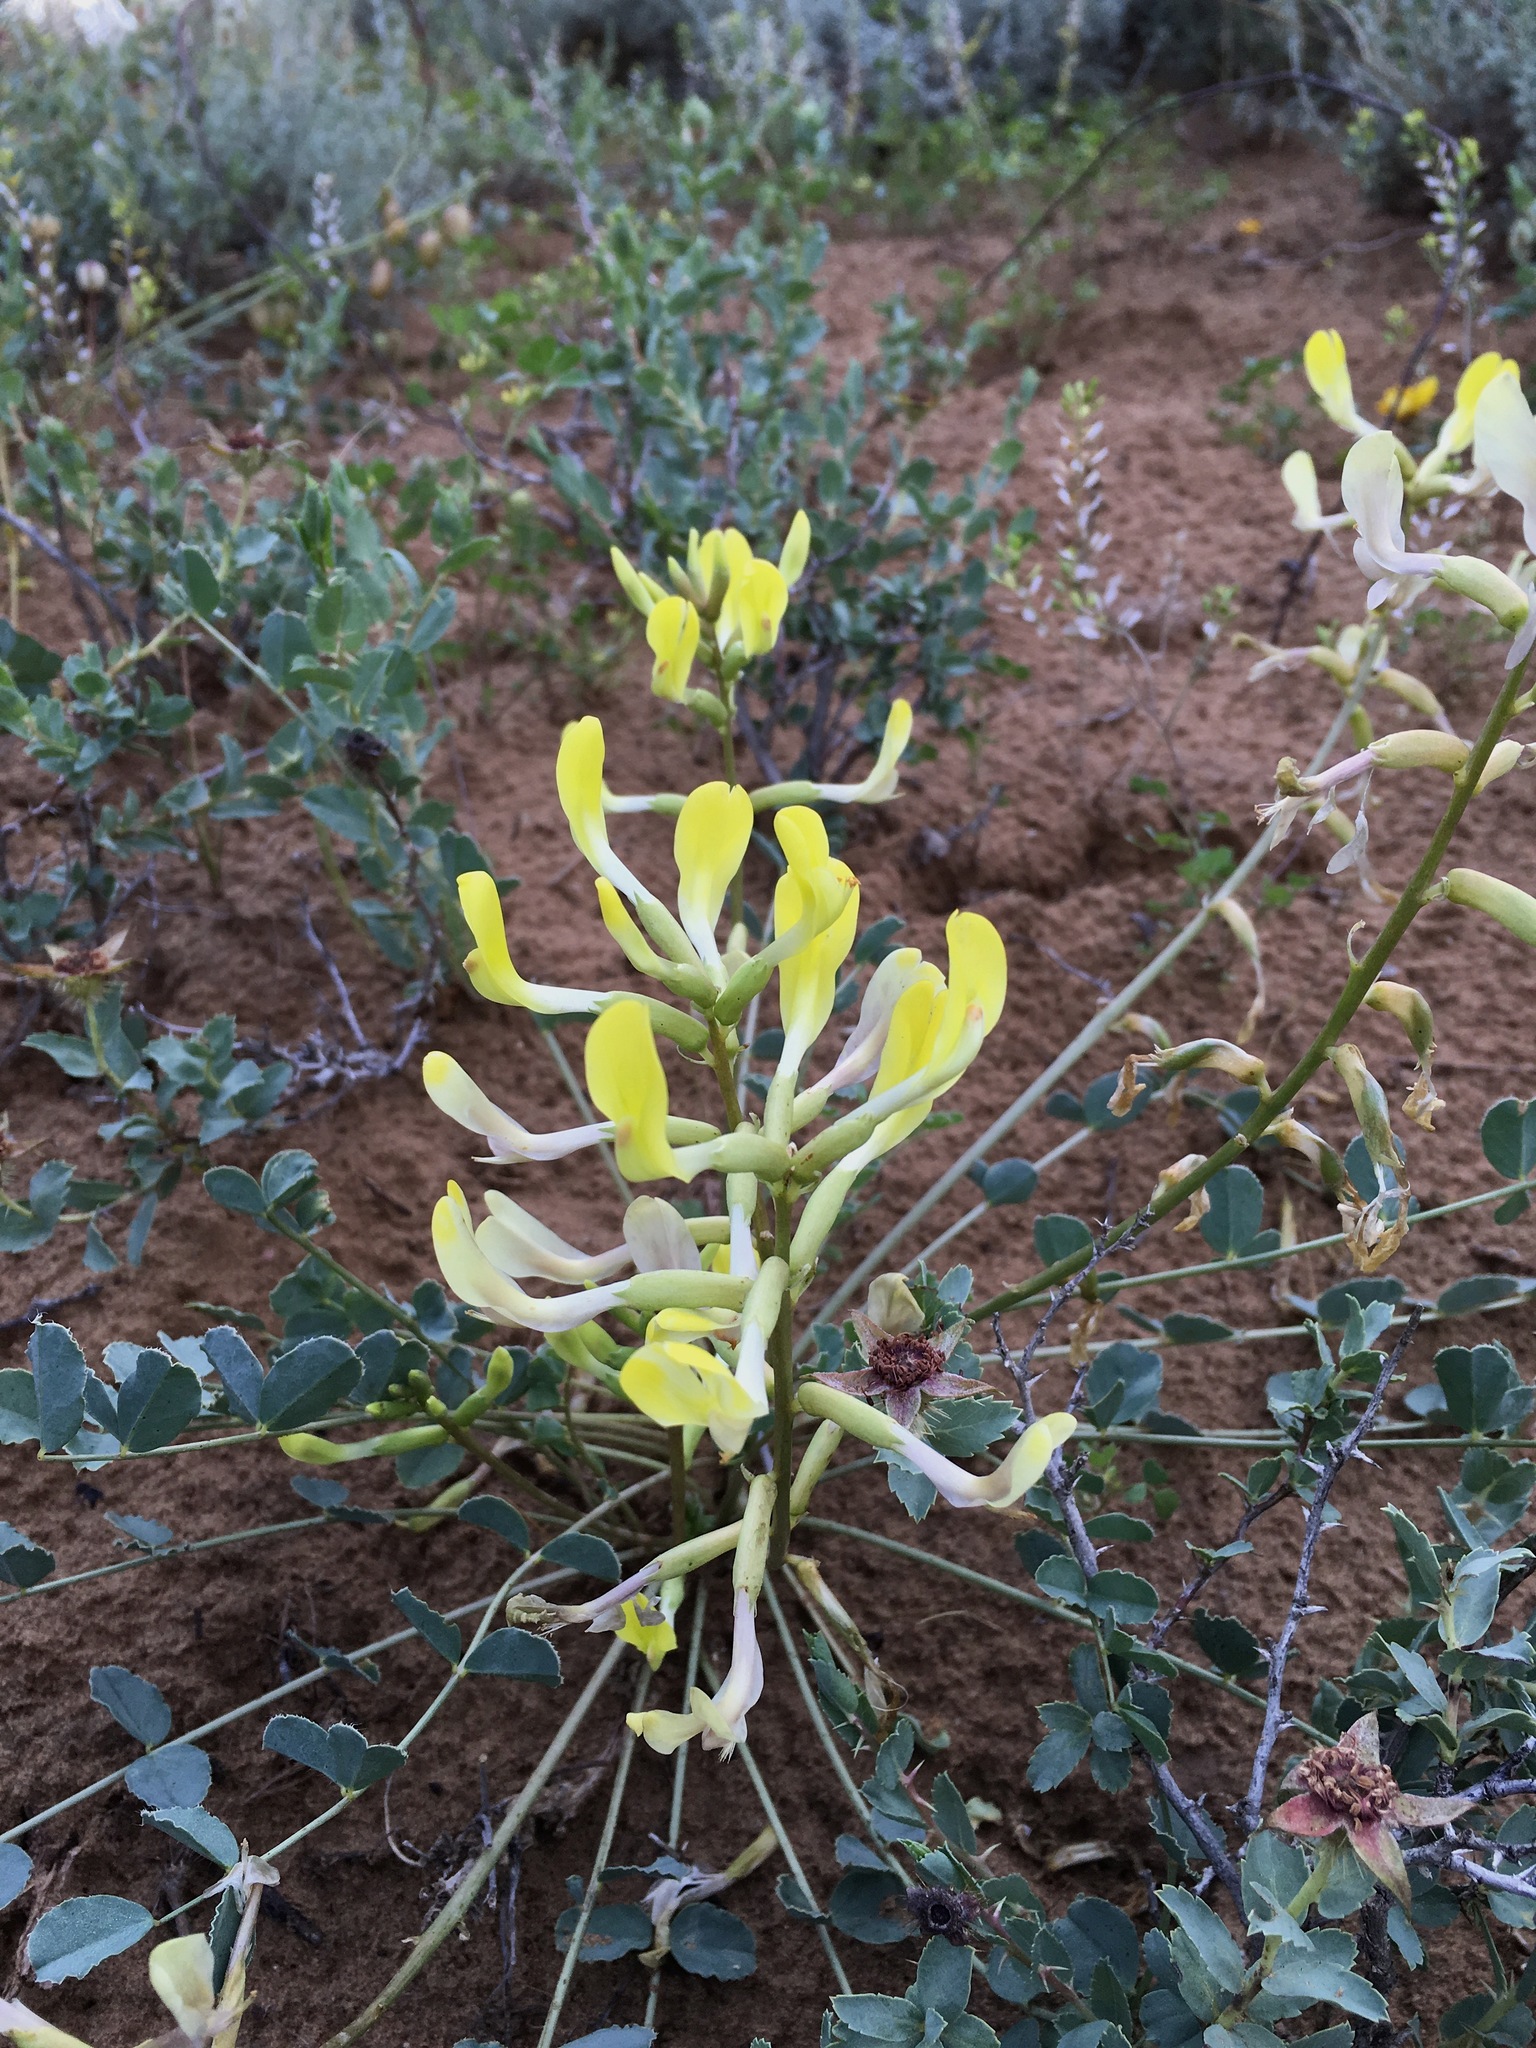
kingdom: Plantae
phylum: Tracheophyta
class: Magnoliopsida
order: Fabales
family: Fabaceae
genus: Astragalus
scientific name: Astragalus flexus
